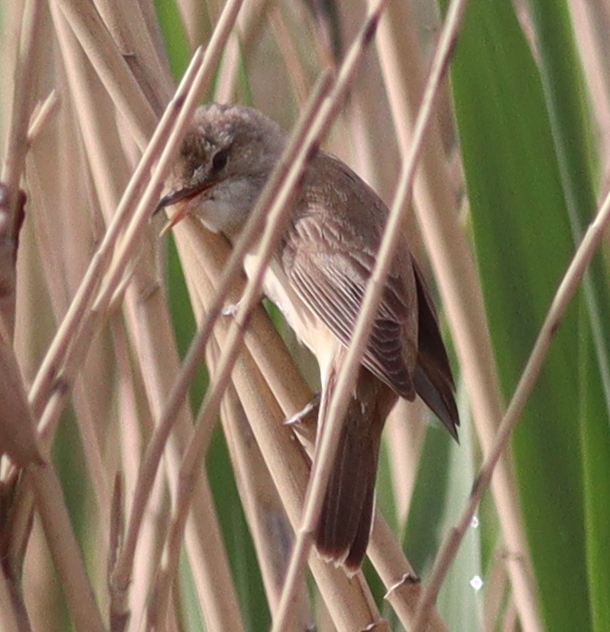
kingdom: Animalia
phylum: Chordata
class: Aves
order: Passeriformes
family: Acrocephalidae
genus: Acrocephalus
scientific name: Acrocephalus arundinaceus
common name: Great reed warbler
